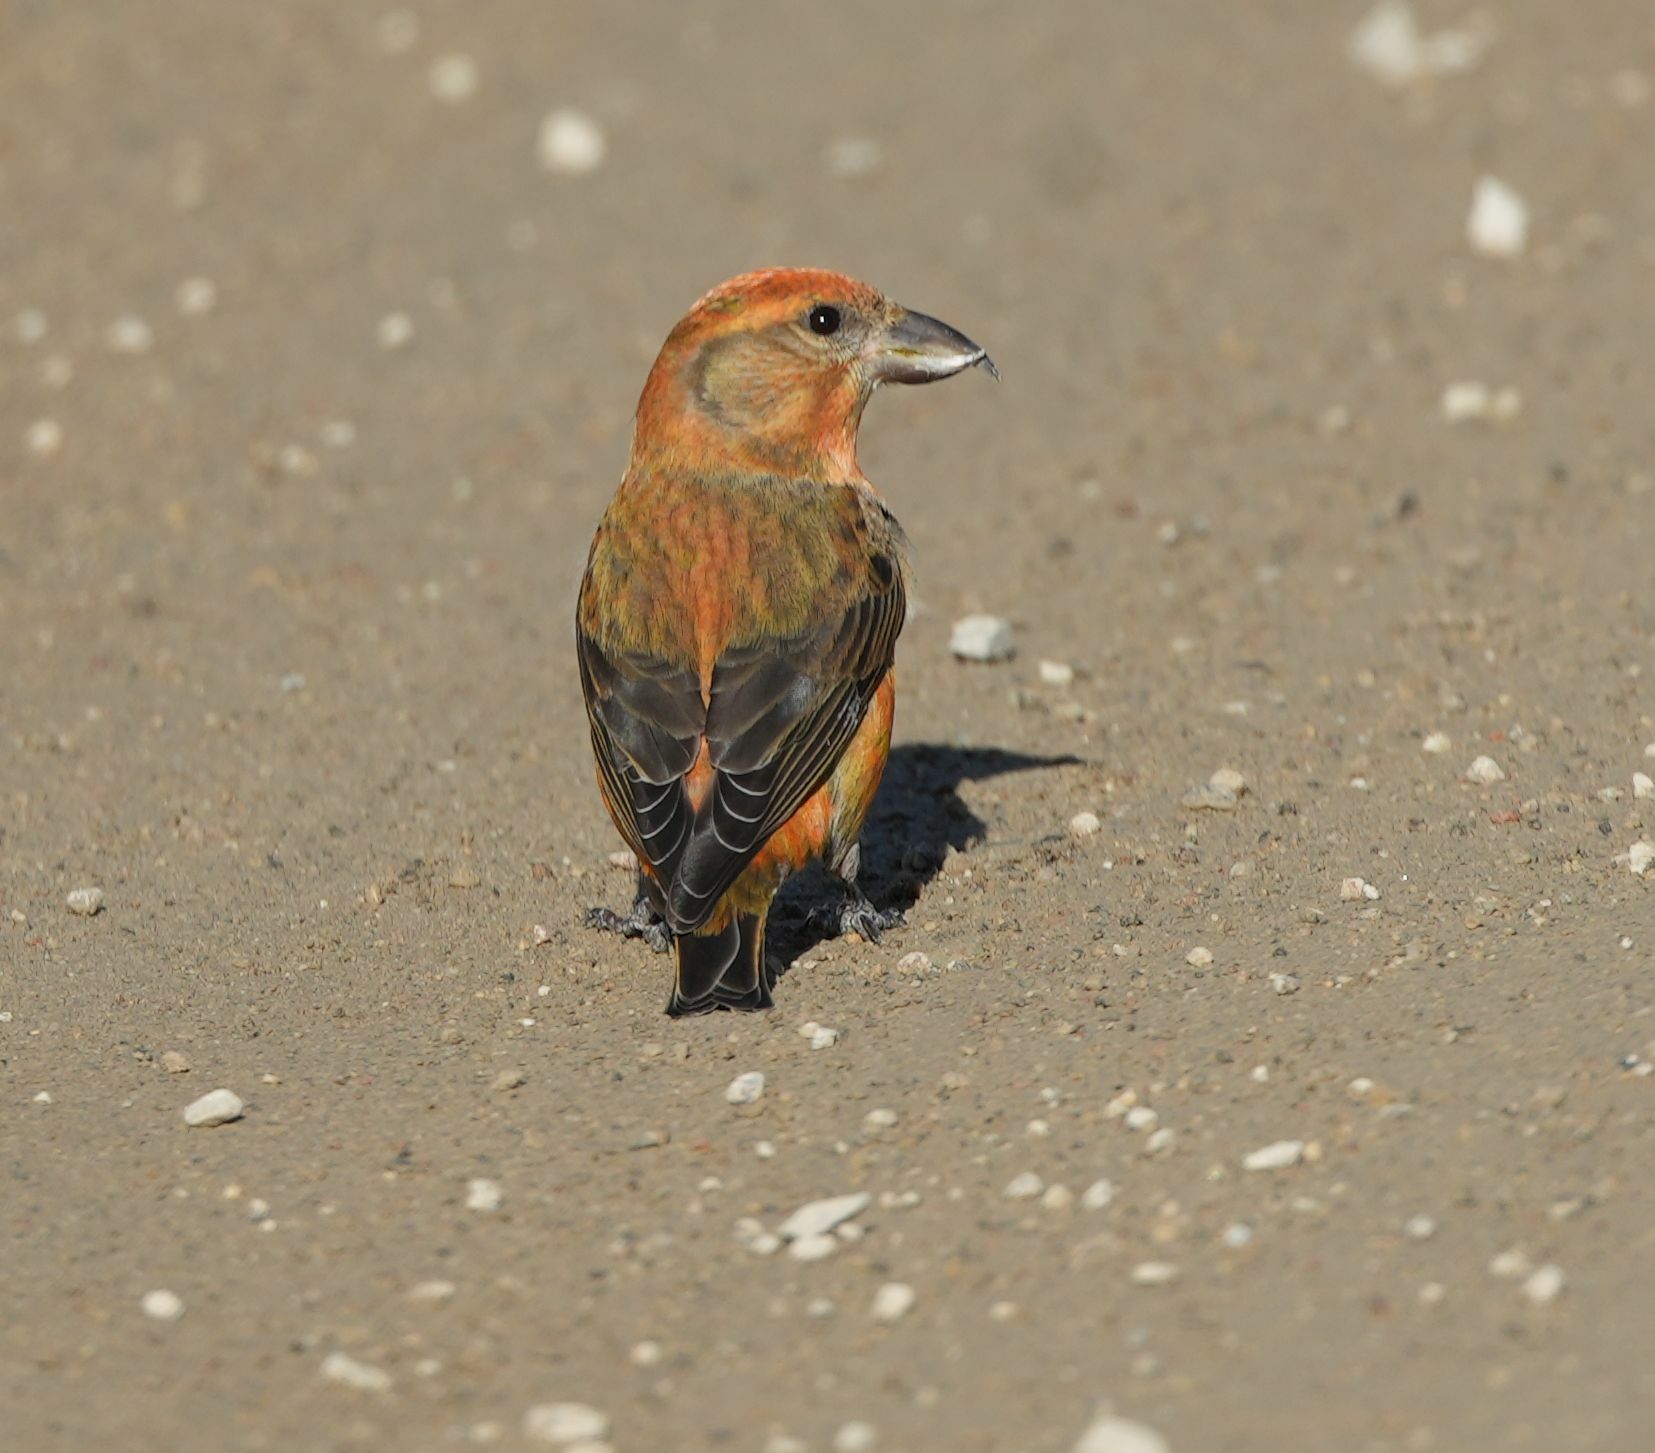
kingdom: Animalia
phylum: Chordata
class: Aves
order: Passeriformes
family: Fringillidae
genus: Loxia
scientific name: Loxia curvirostra
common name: Red crossbill
